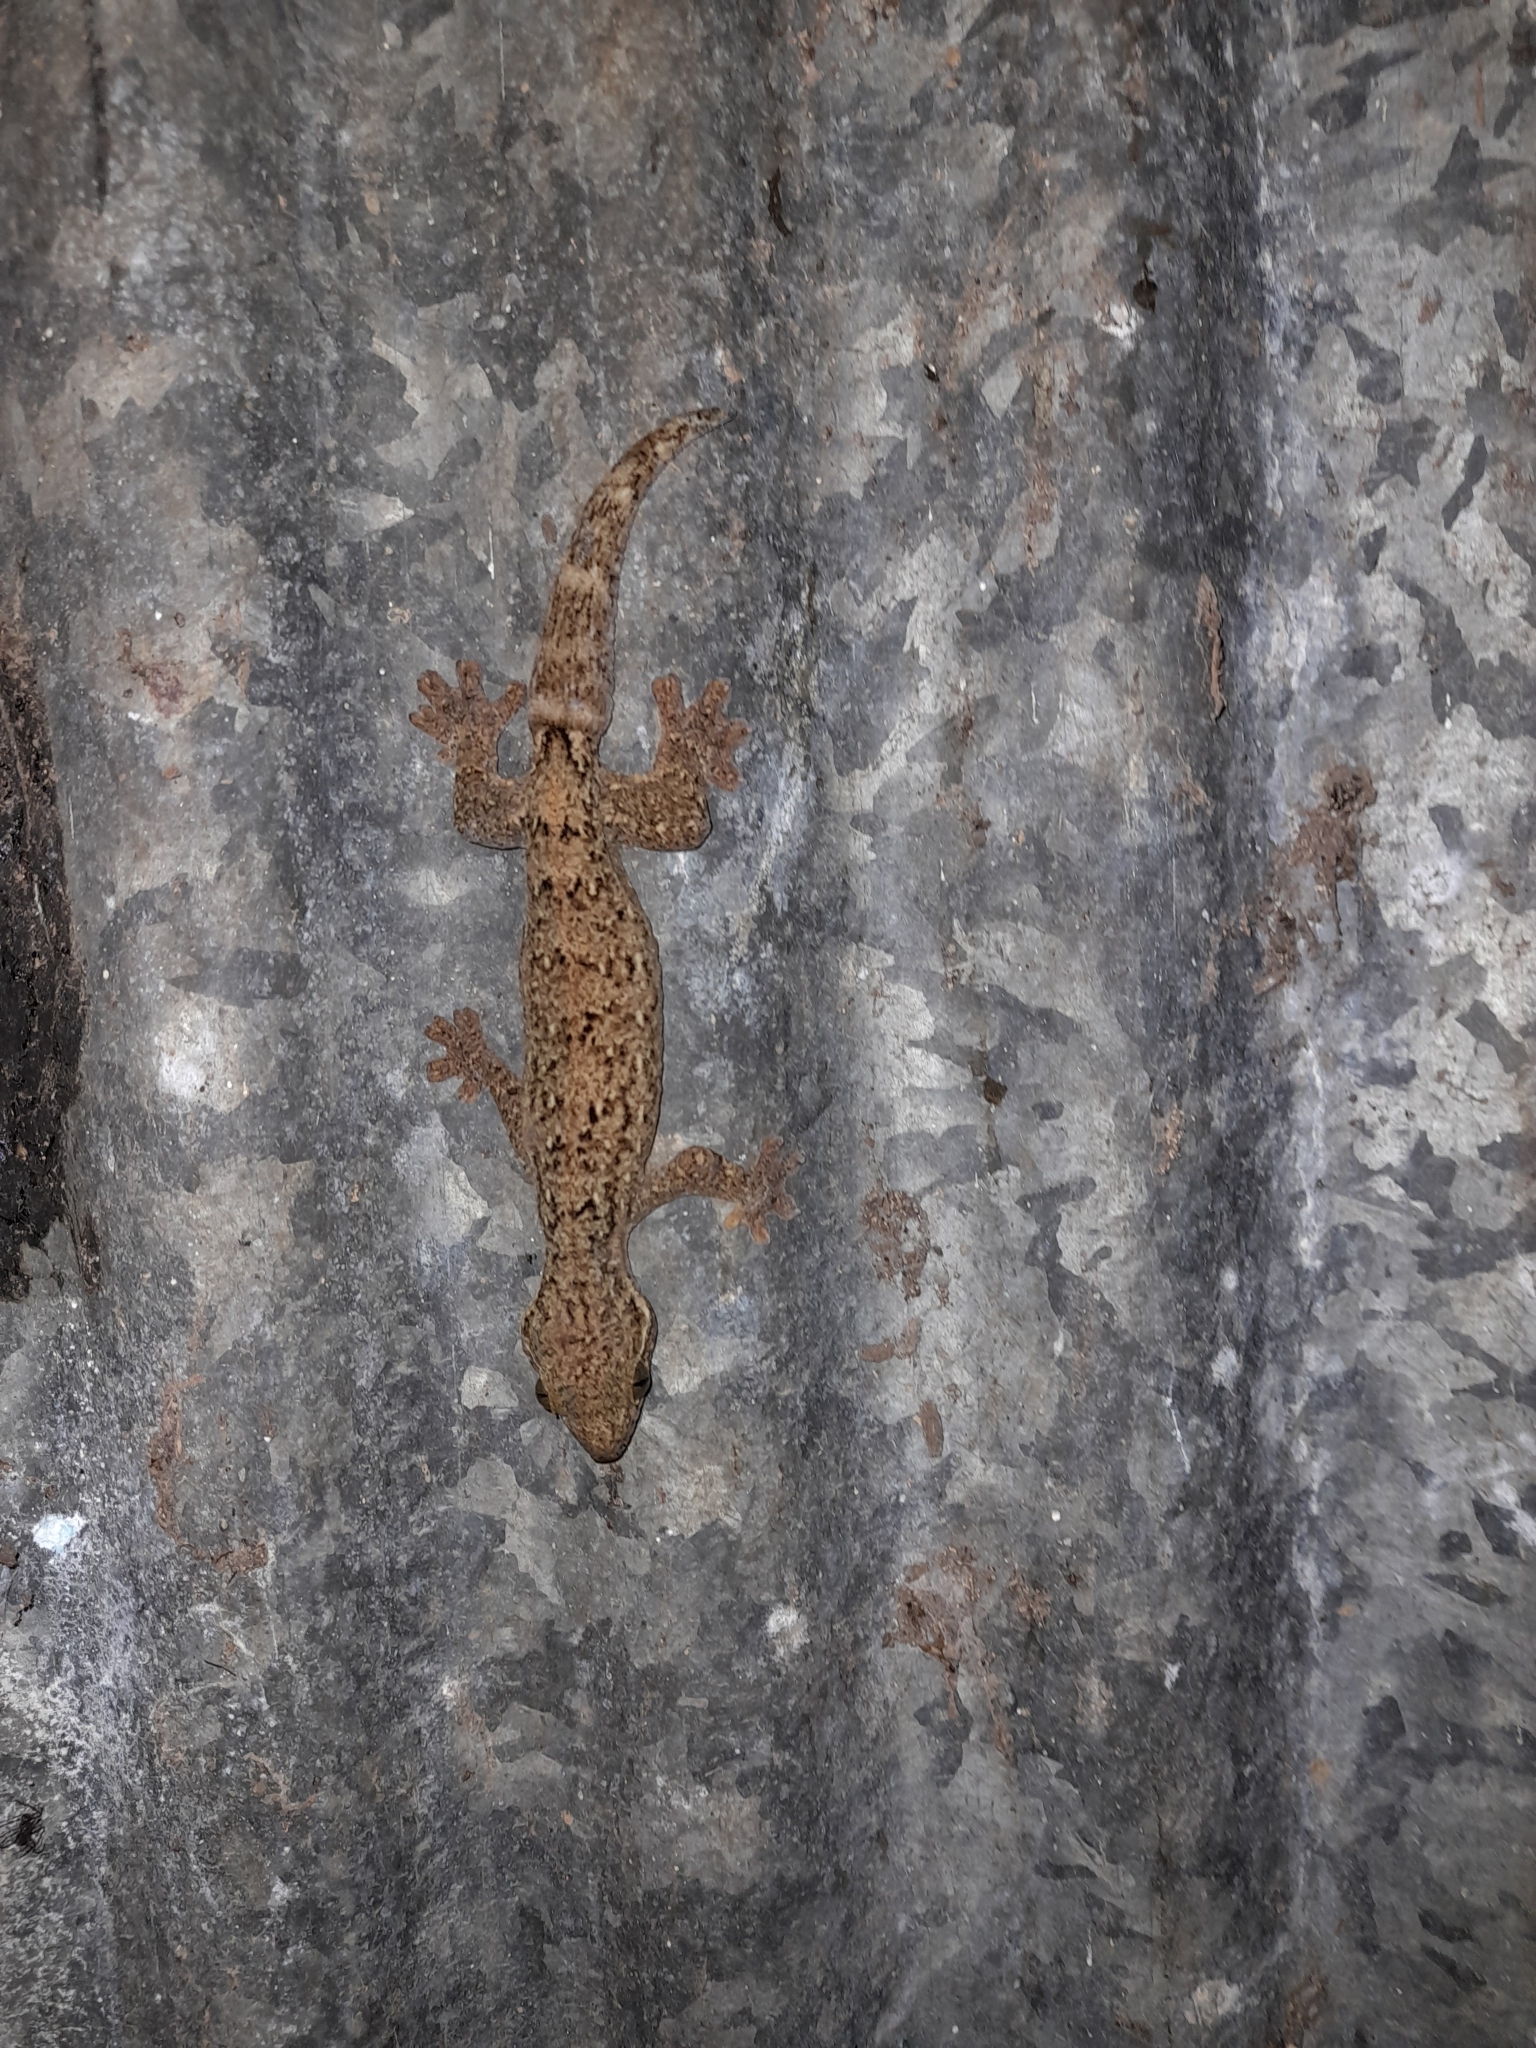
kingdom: Animalia
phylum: Chordata
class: Squamata
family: Phyllodactylidae
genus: Thecadactylus
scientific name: Thecadactylus rapicauda
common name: Turnip-tailed gecko
